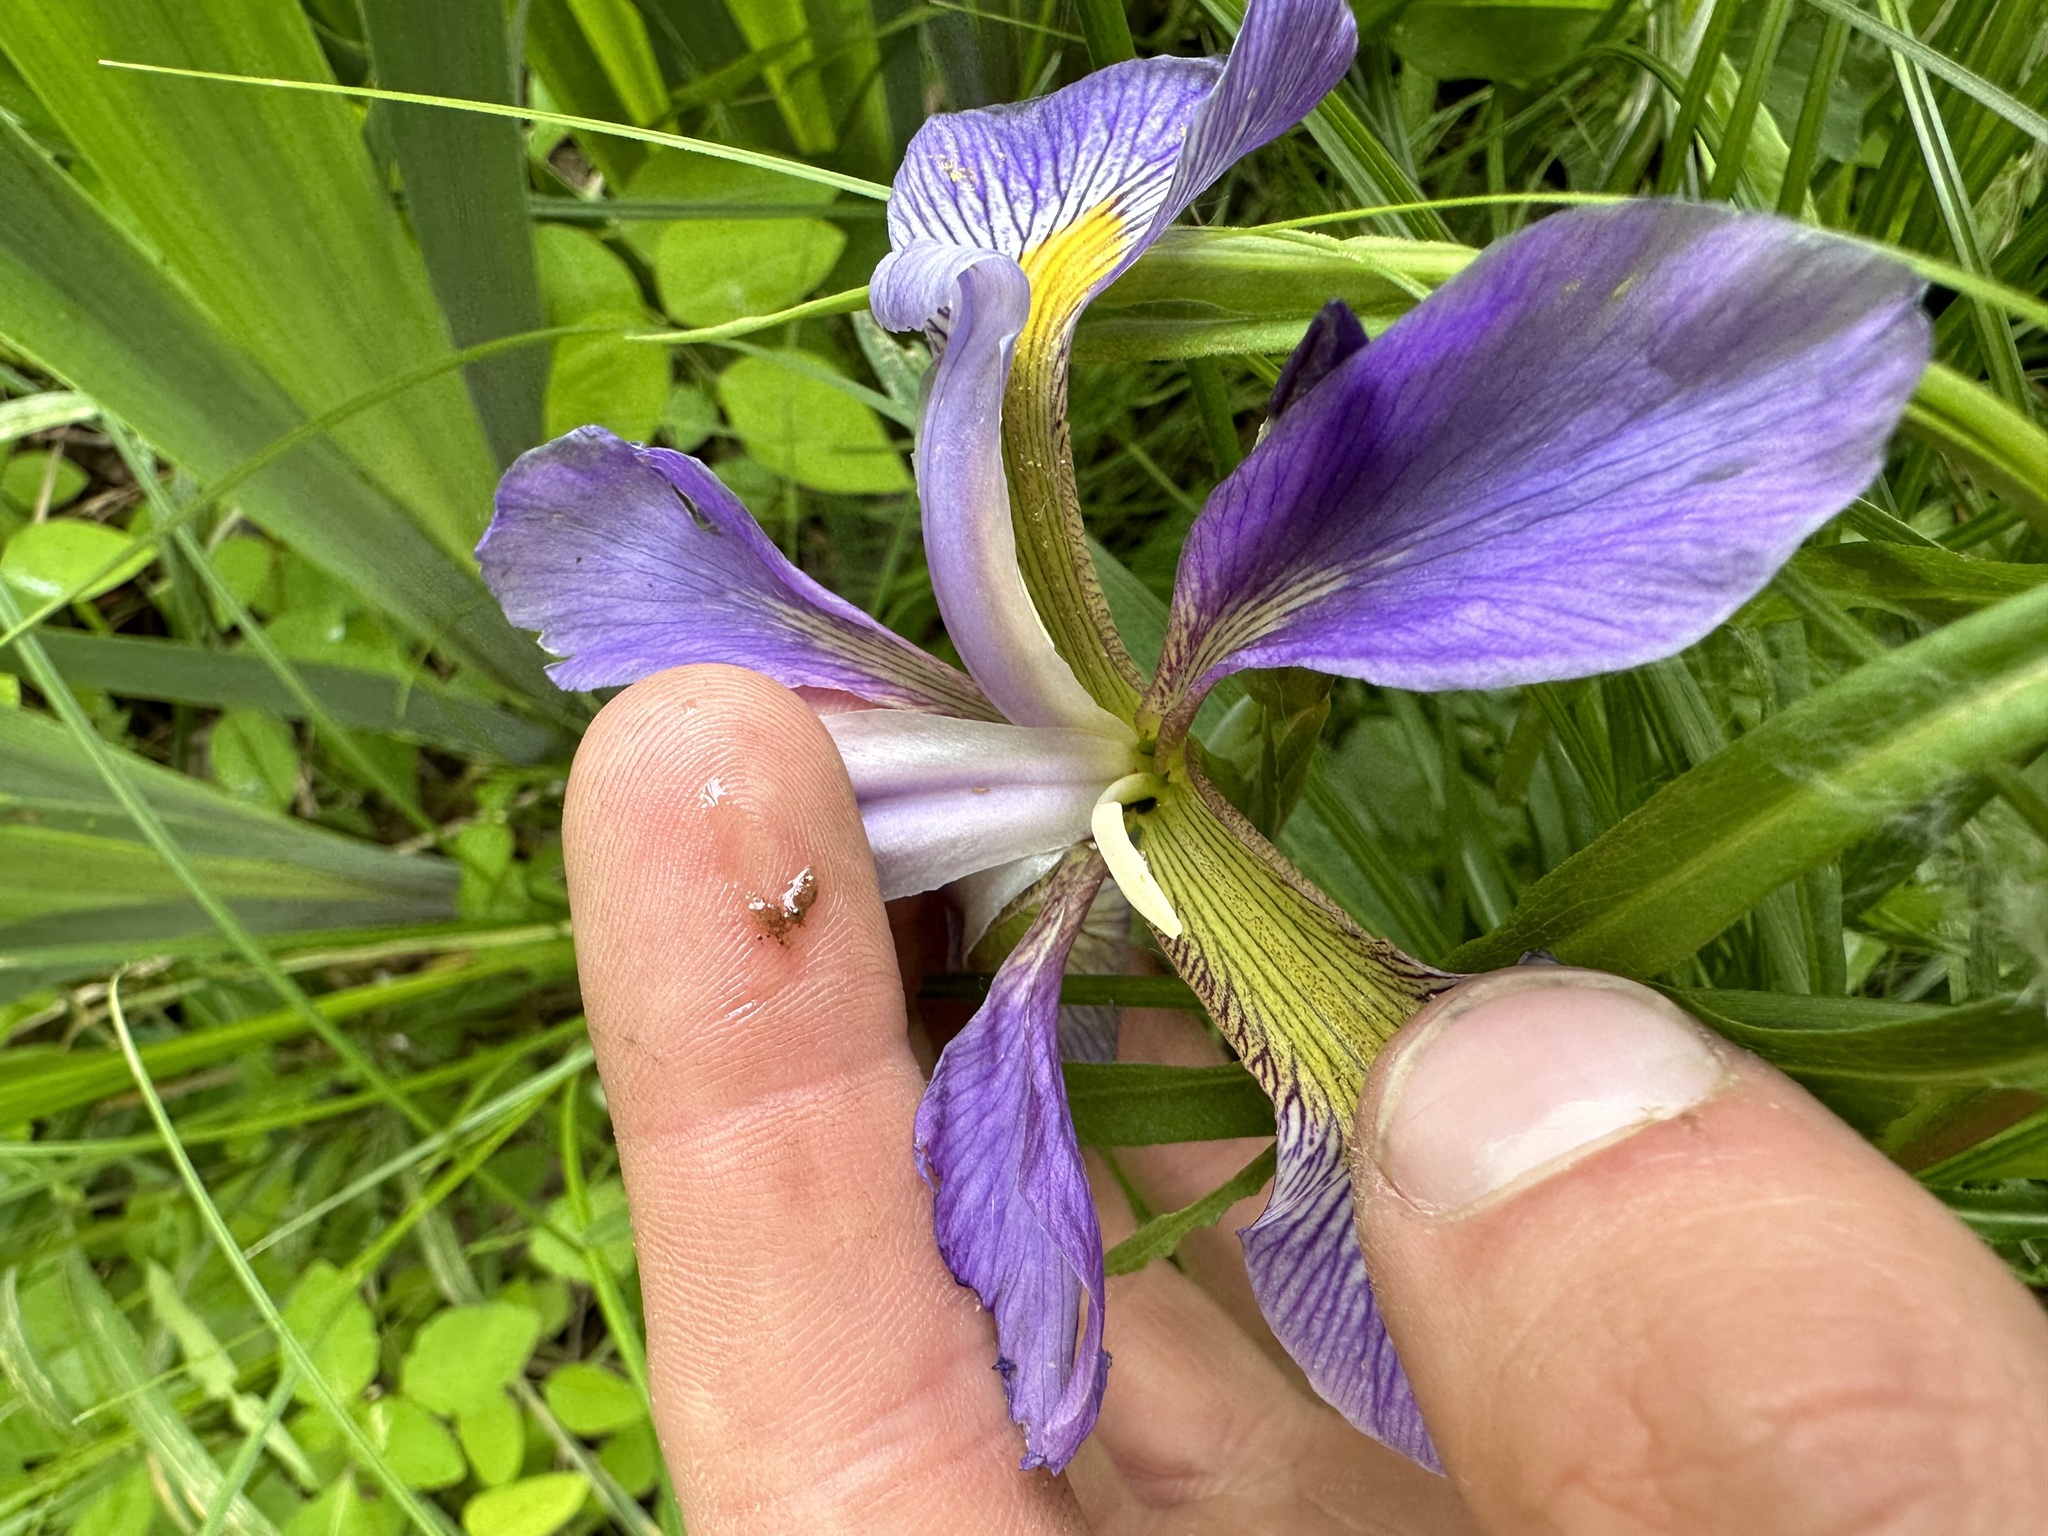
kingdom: Plantae
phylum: Tracheophyta
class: Liliopsida
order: Asparagales
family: Iridaceae
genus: Iris
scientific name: Iris virginica
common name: Southern blue flag
